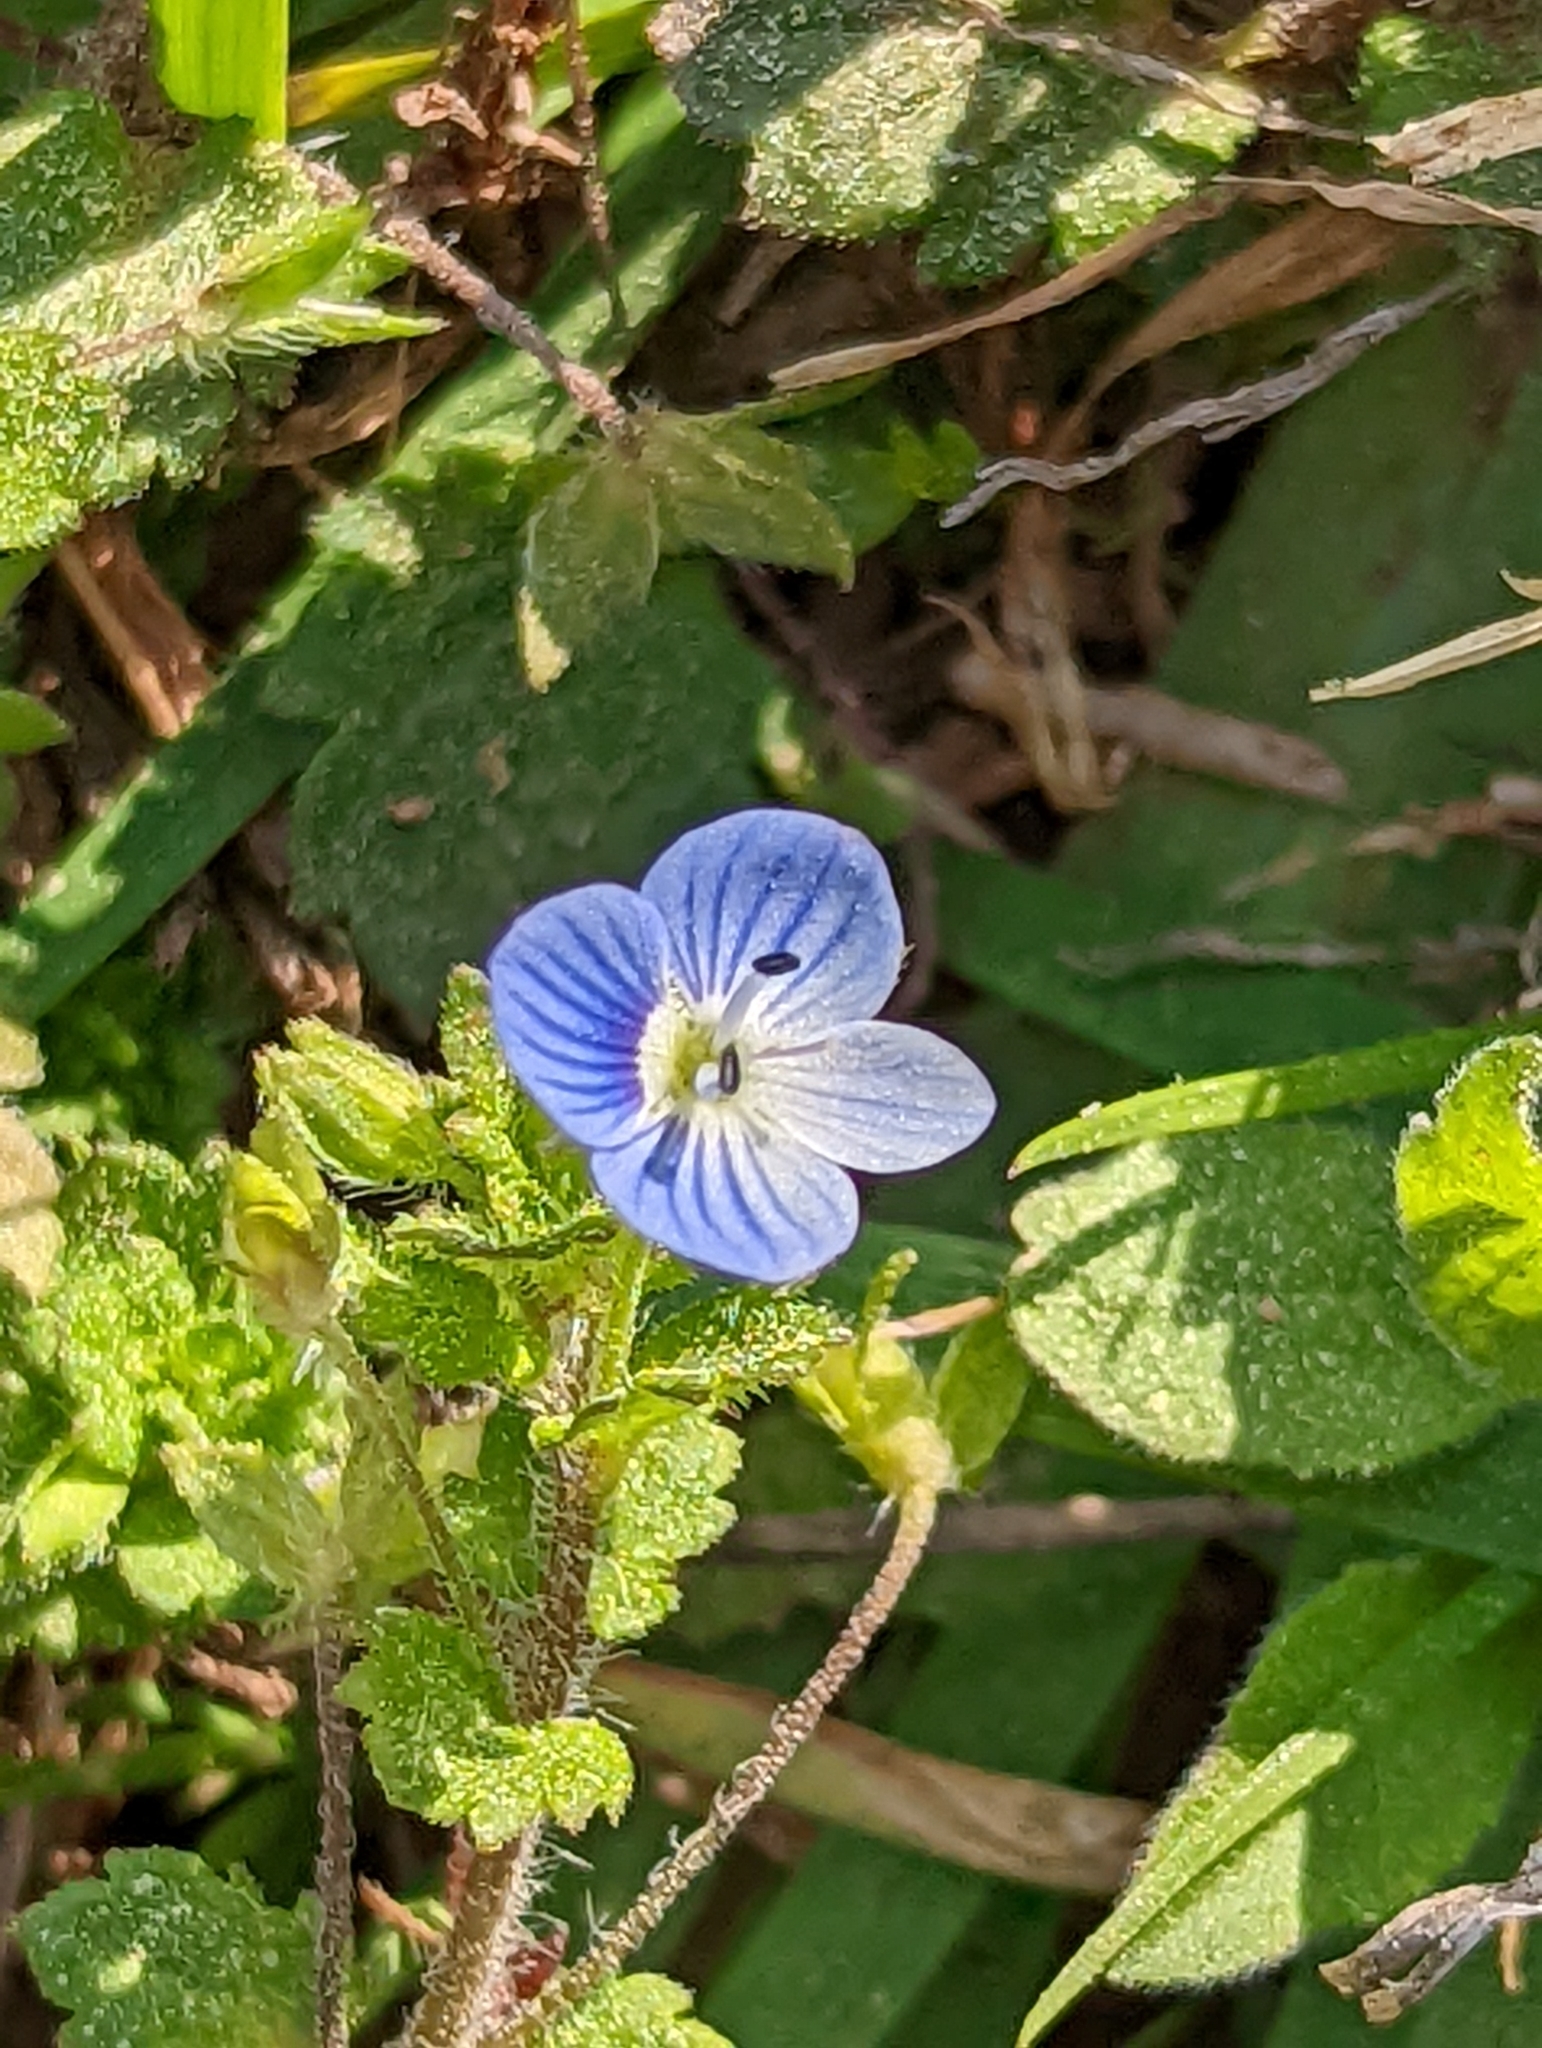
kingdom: Plantae
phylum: Tracheophyta
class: Magnoliopsida
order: Lamiales
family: Plantaginaceae
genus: Veronica
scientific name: Veronica persica
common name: Common field-speedwell
